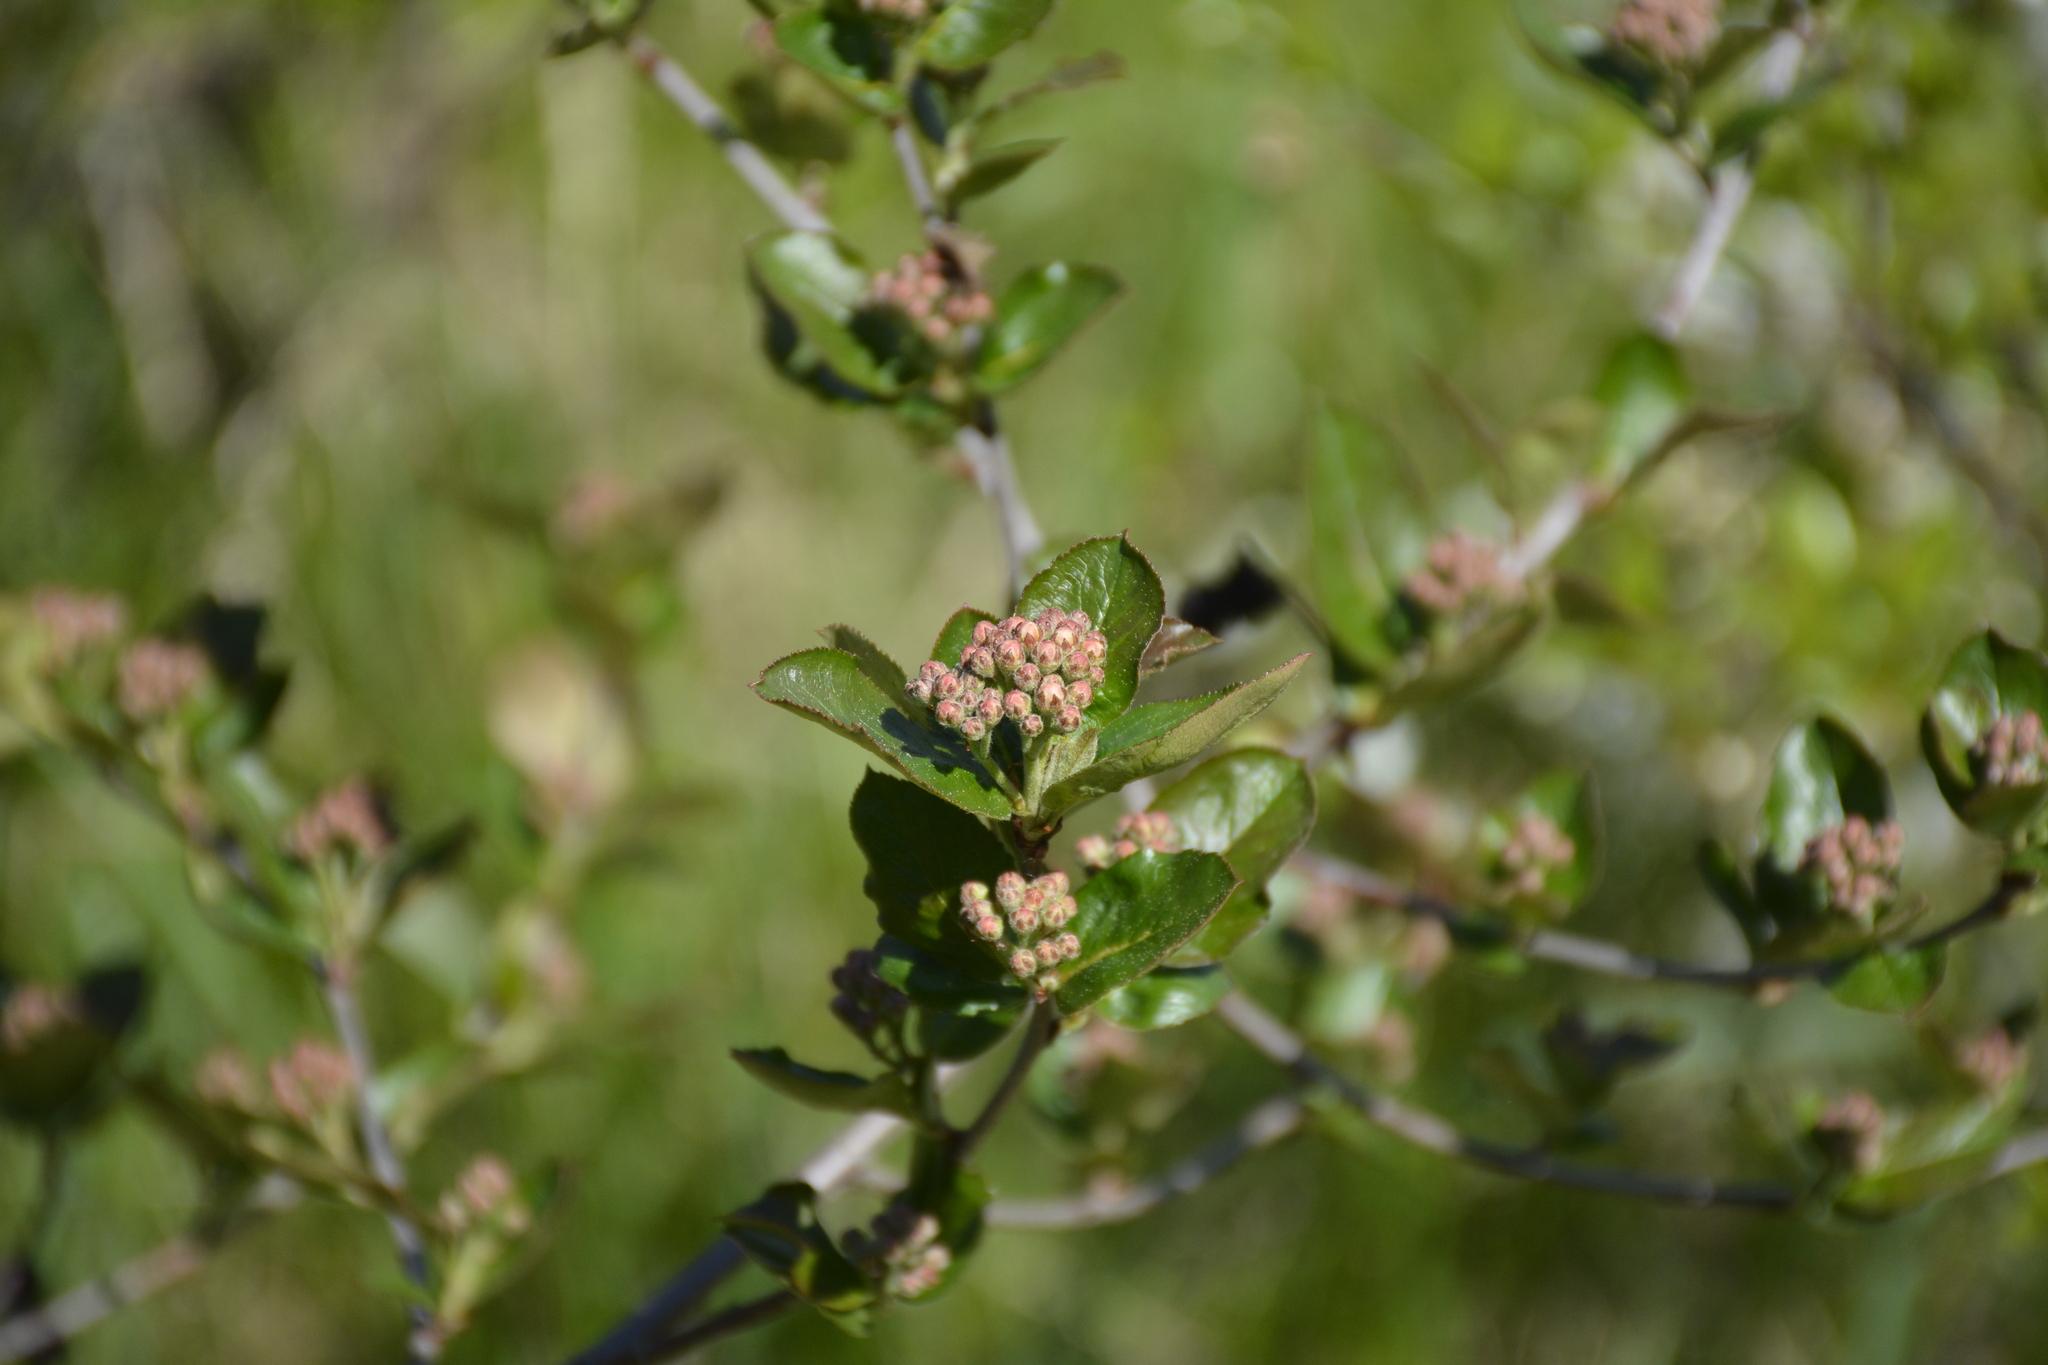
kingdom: Plantae
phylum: Tracheophyta
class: Magnoliopsida
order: Rosales
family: Rosaceae
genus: Sorbaronia
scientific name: Sorbaronia arsenii
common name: Arsène's mountain-ash
